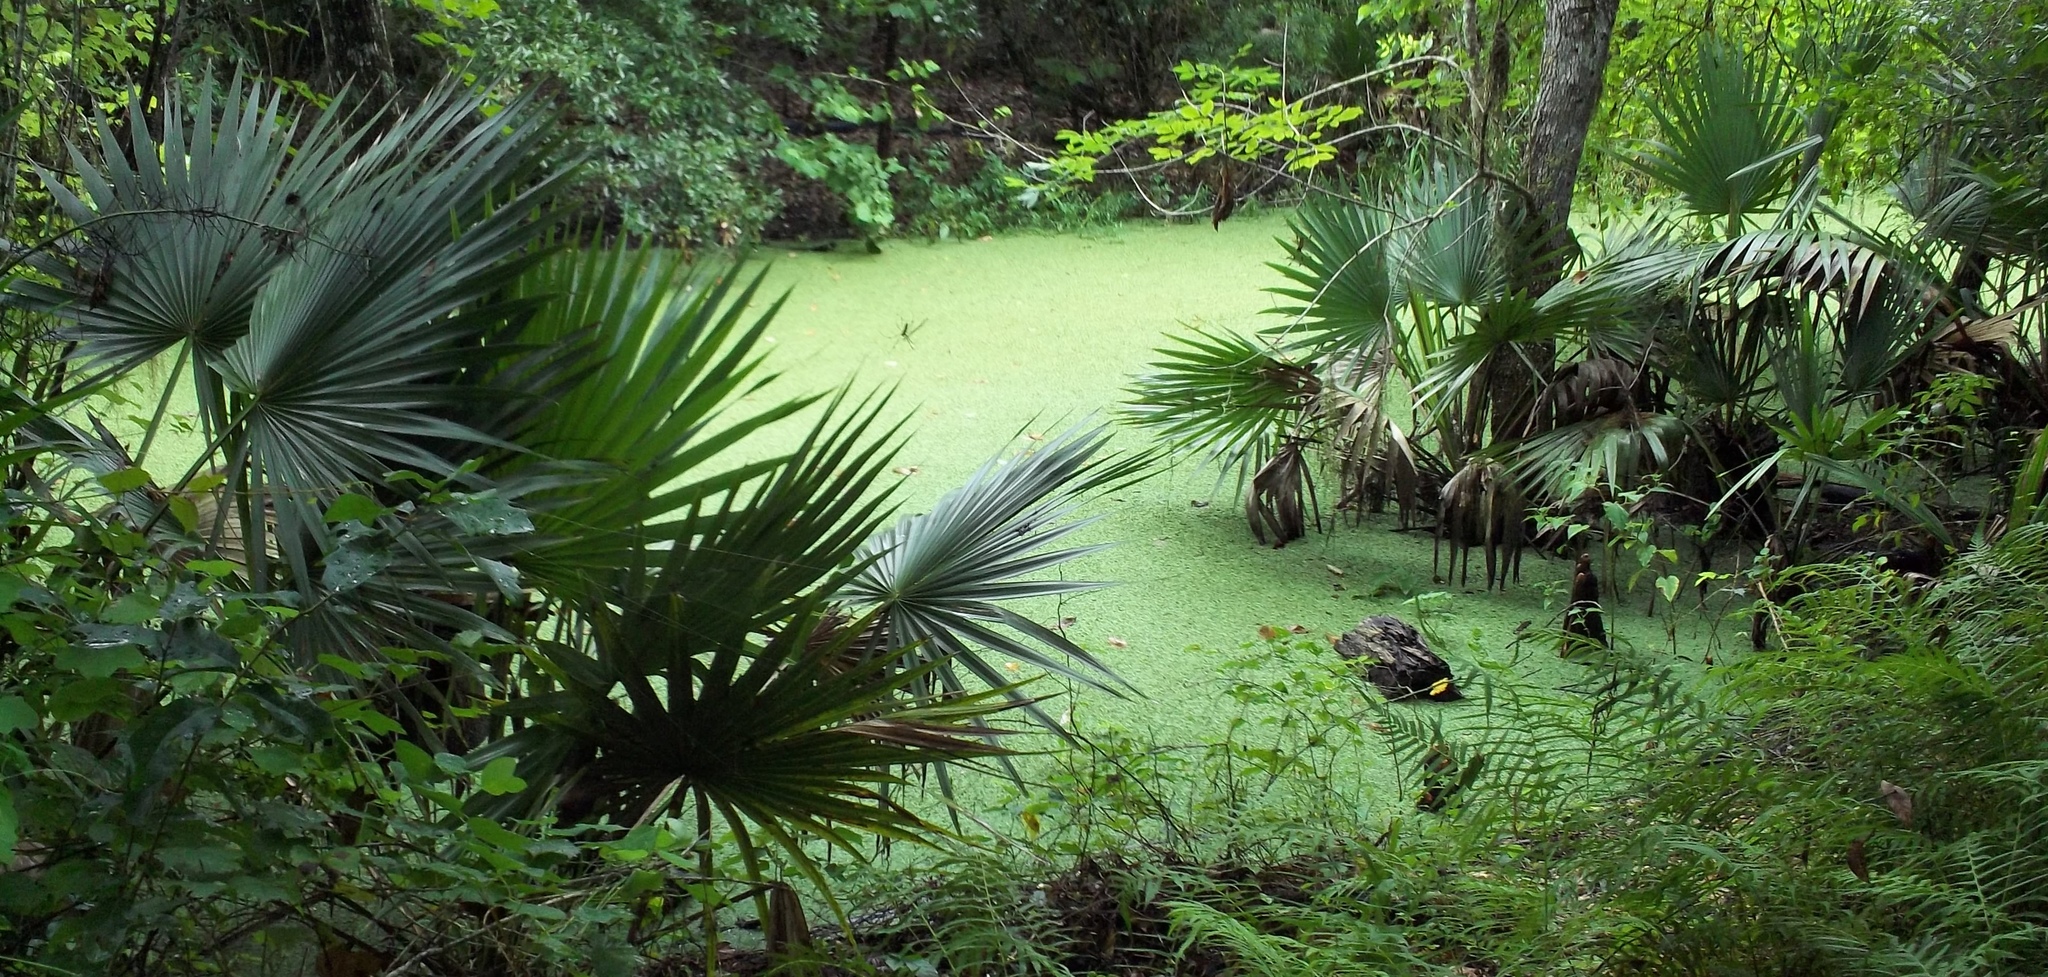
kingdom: Plantae
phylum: Tracheophyta
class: Liliopsida
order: Arecales
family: Arecaceae
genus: Sabal
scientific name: Sabal minor
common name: Dwarf palmetto
